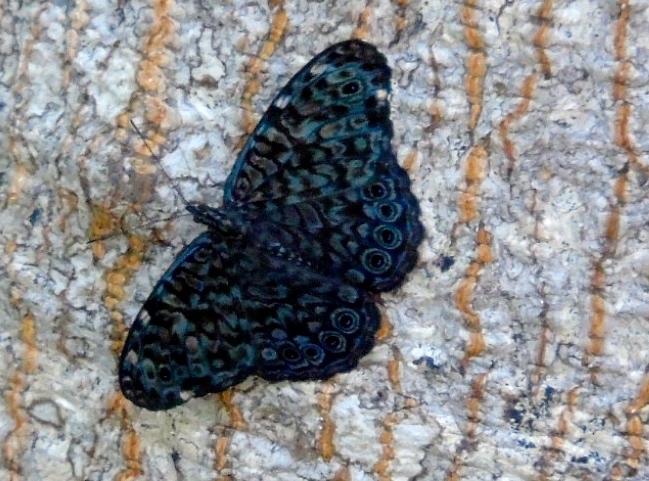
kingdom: Animalia
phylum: Arthropoda
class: Insecta
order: Lepidoptera
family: Nymphalidae
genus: Hamadryas
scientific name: Hamadryas atlantis
